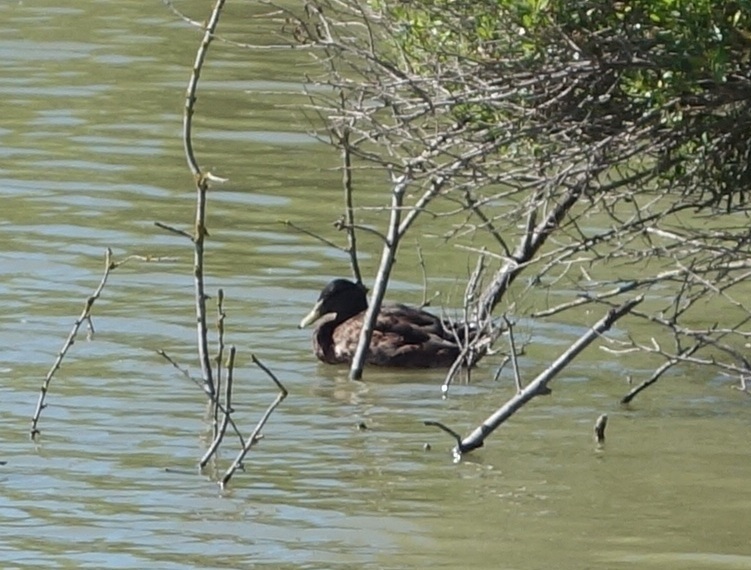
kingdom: Animalia
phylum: Chordata
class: Aves
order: Anseriformes
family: Anatidae
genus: Anas
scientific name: Anas platyrhynchos
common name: Mallard
